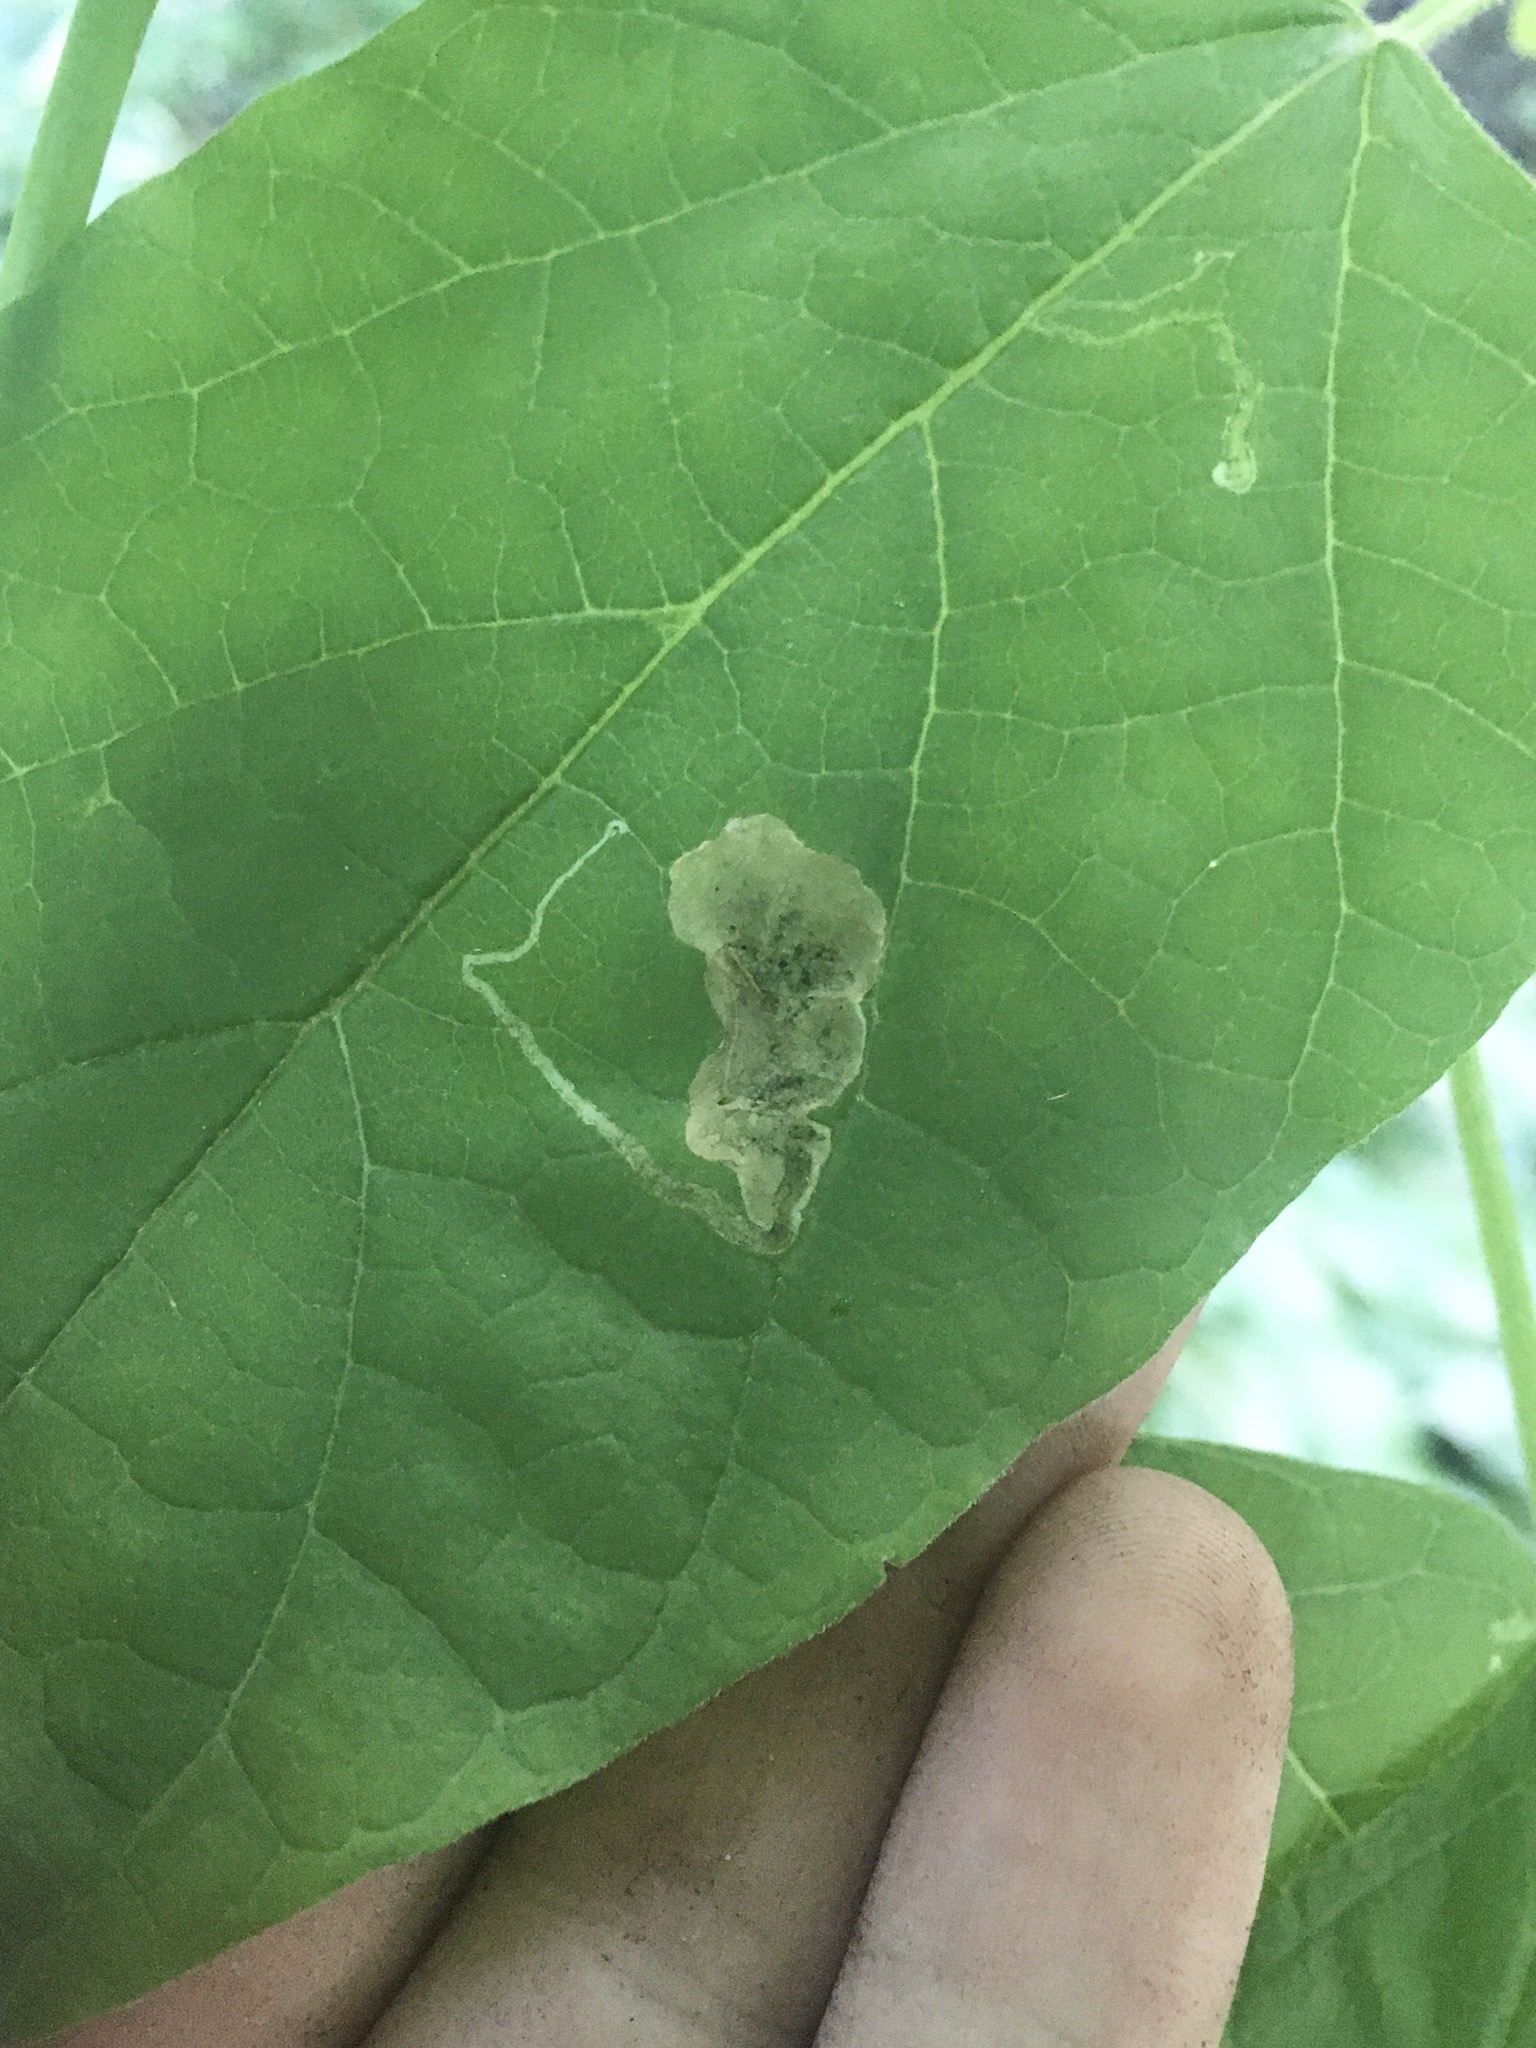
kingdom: Animalia
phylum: Arthropoda
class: Insecta
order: Diptera
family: Agromyzidae
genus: Amauromyza
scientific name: Amauromyza pleuralis
